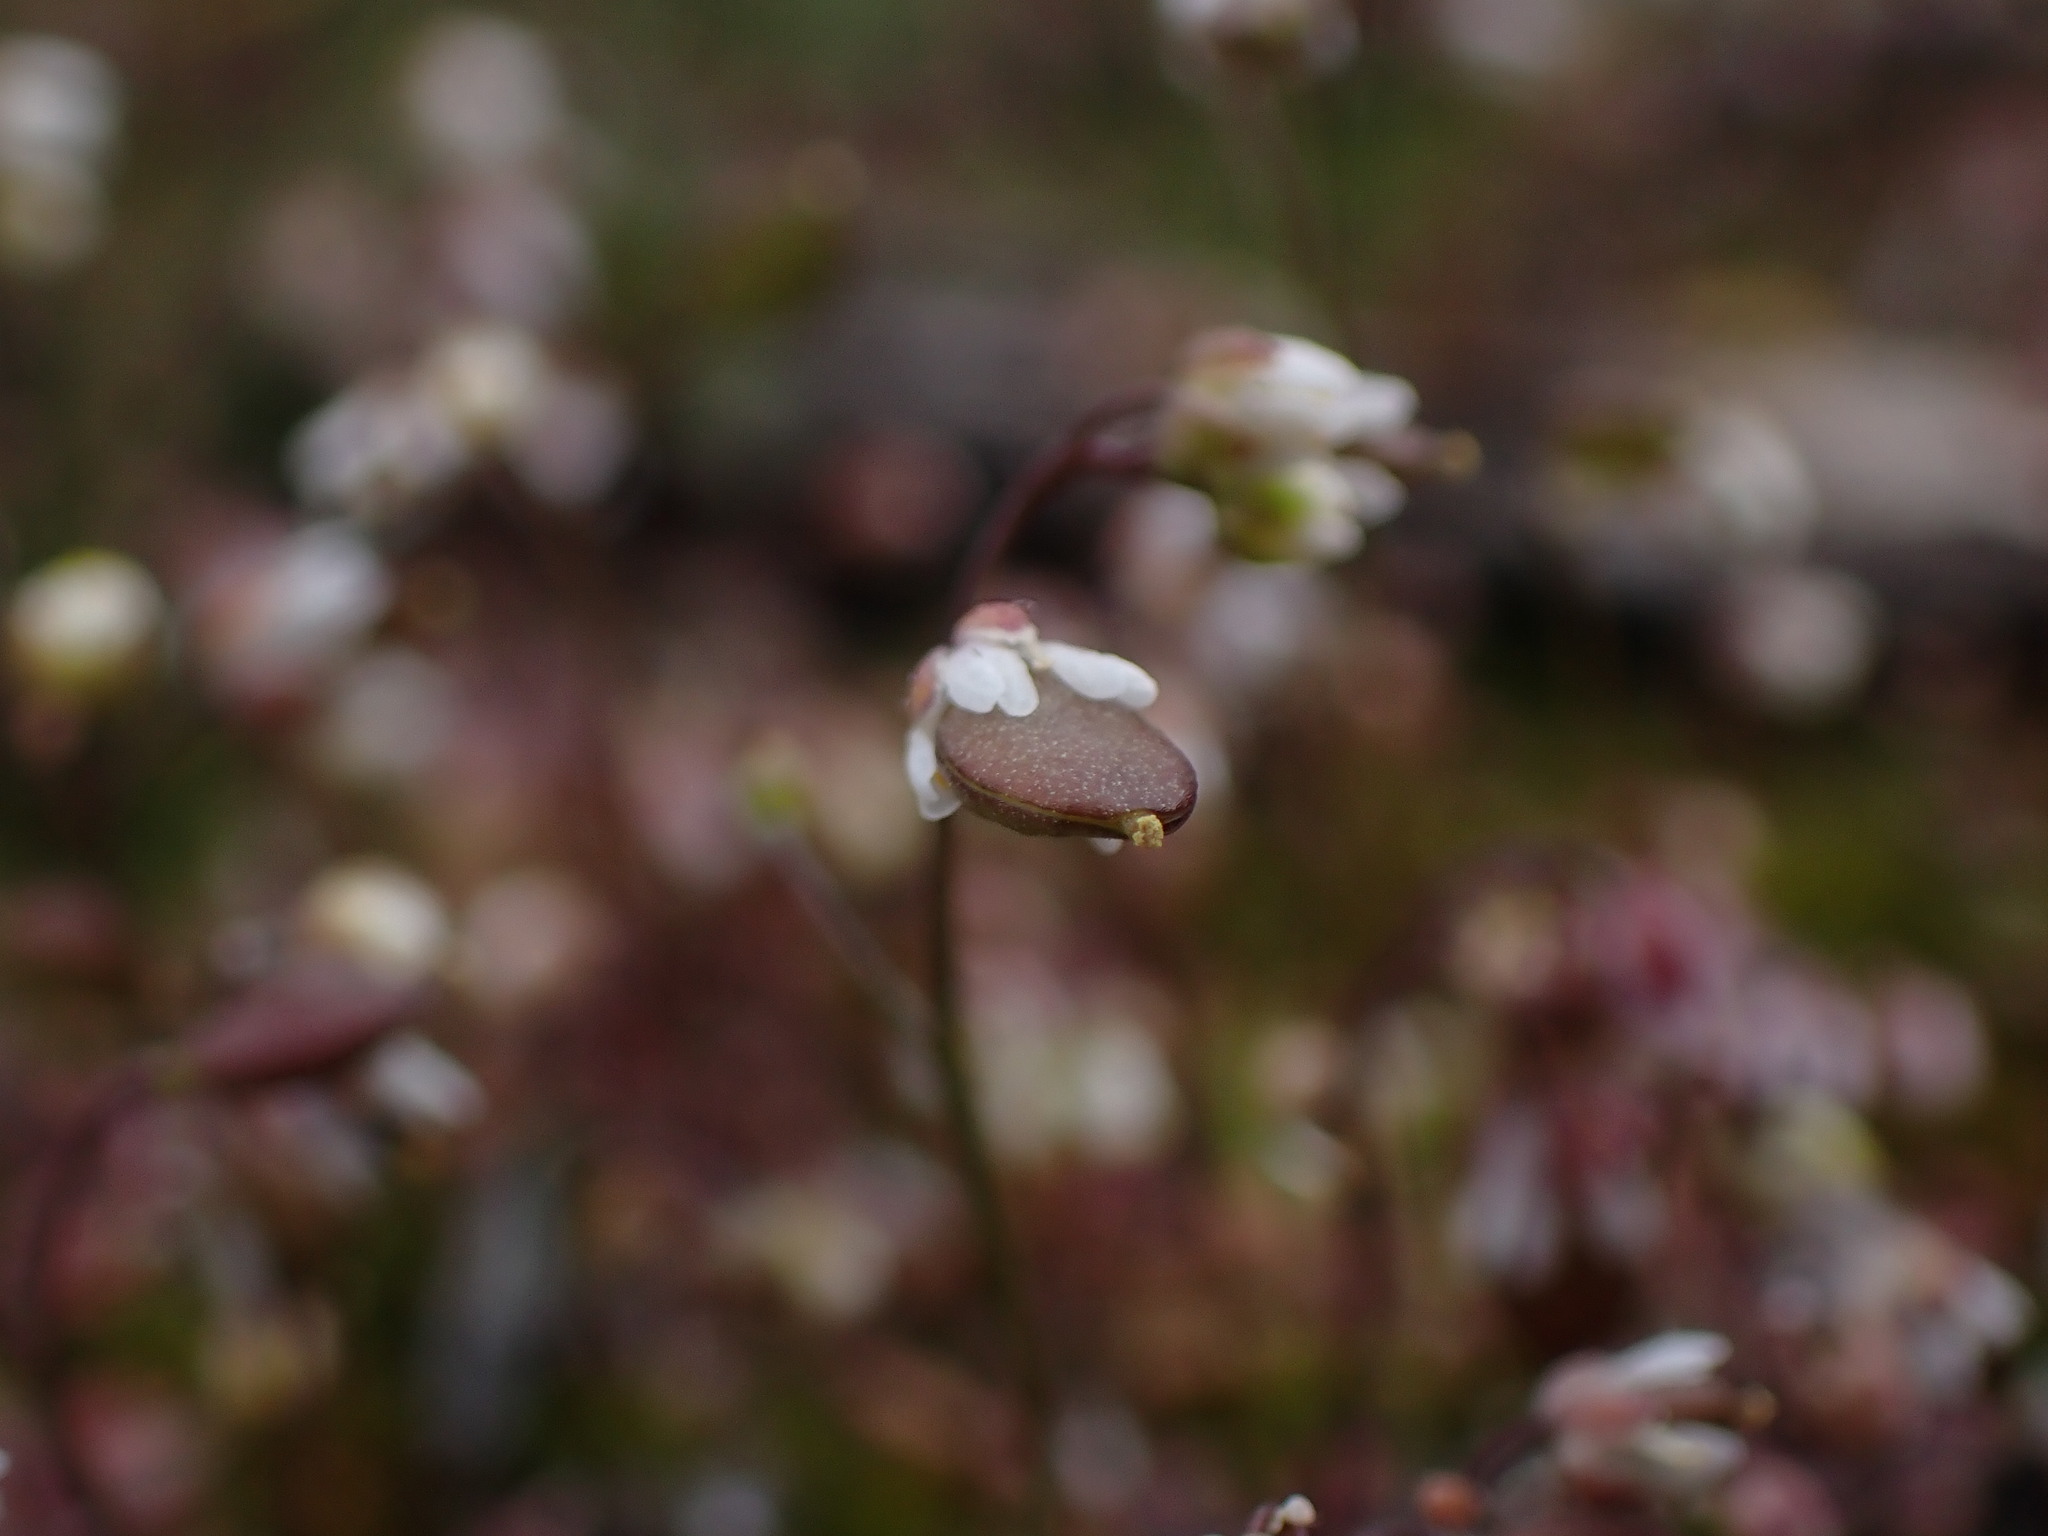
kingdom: Plantae
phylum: Tracheophyta
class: Magnoliopsida
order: Brassicales
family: Brassicaceae
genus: Draba
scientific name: Draba verna
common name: Spring draba
